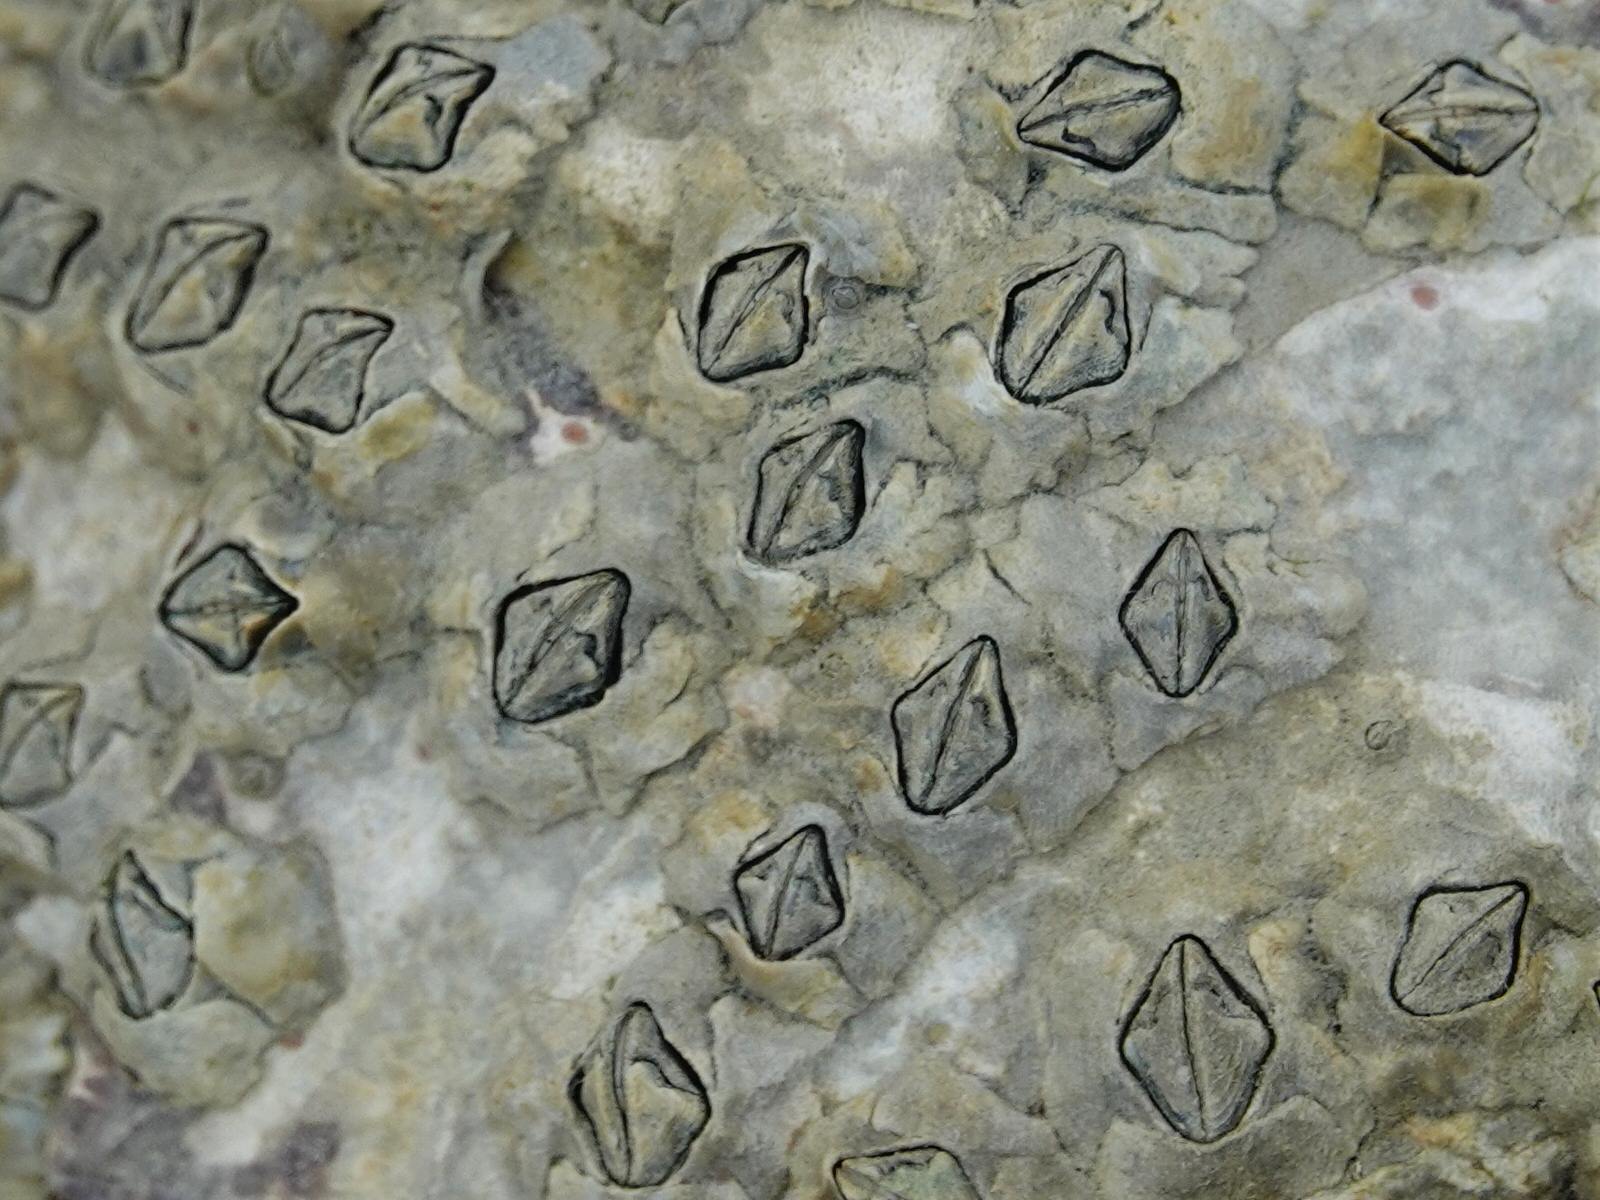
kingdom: Animalia
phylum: Arthropoda
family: Elminiidae
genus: Austrominius
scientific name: Austrominius modestus
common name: Australasian barnacle
